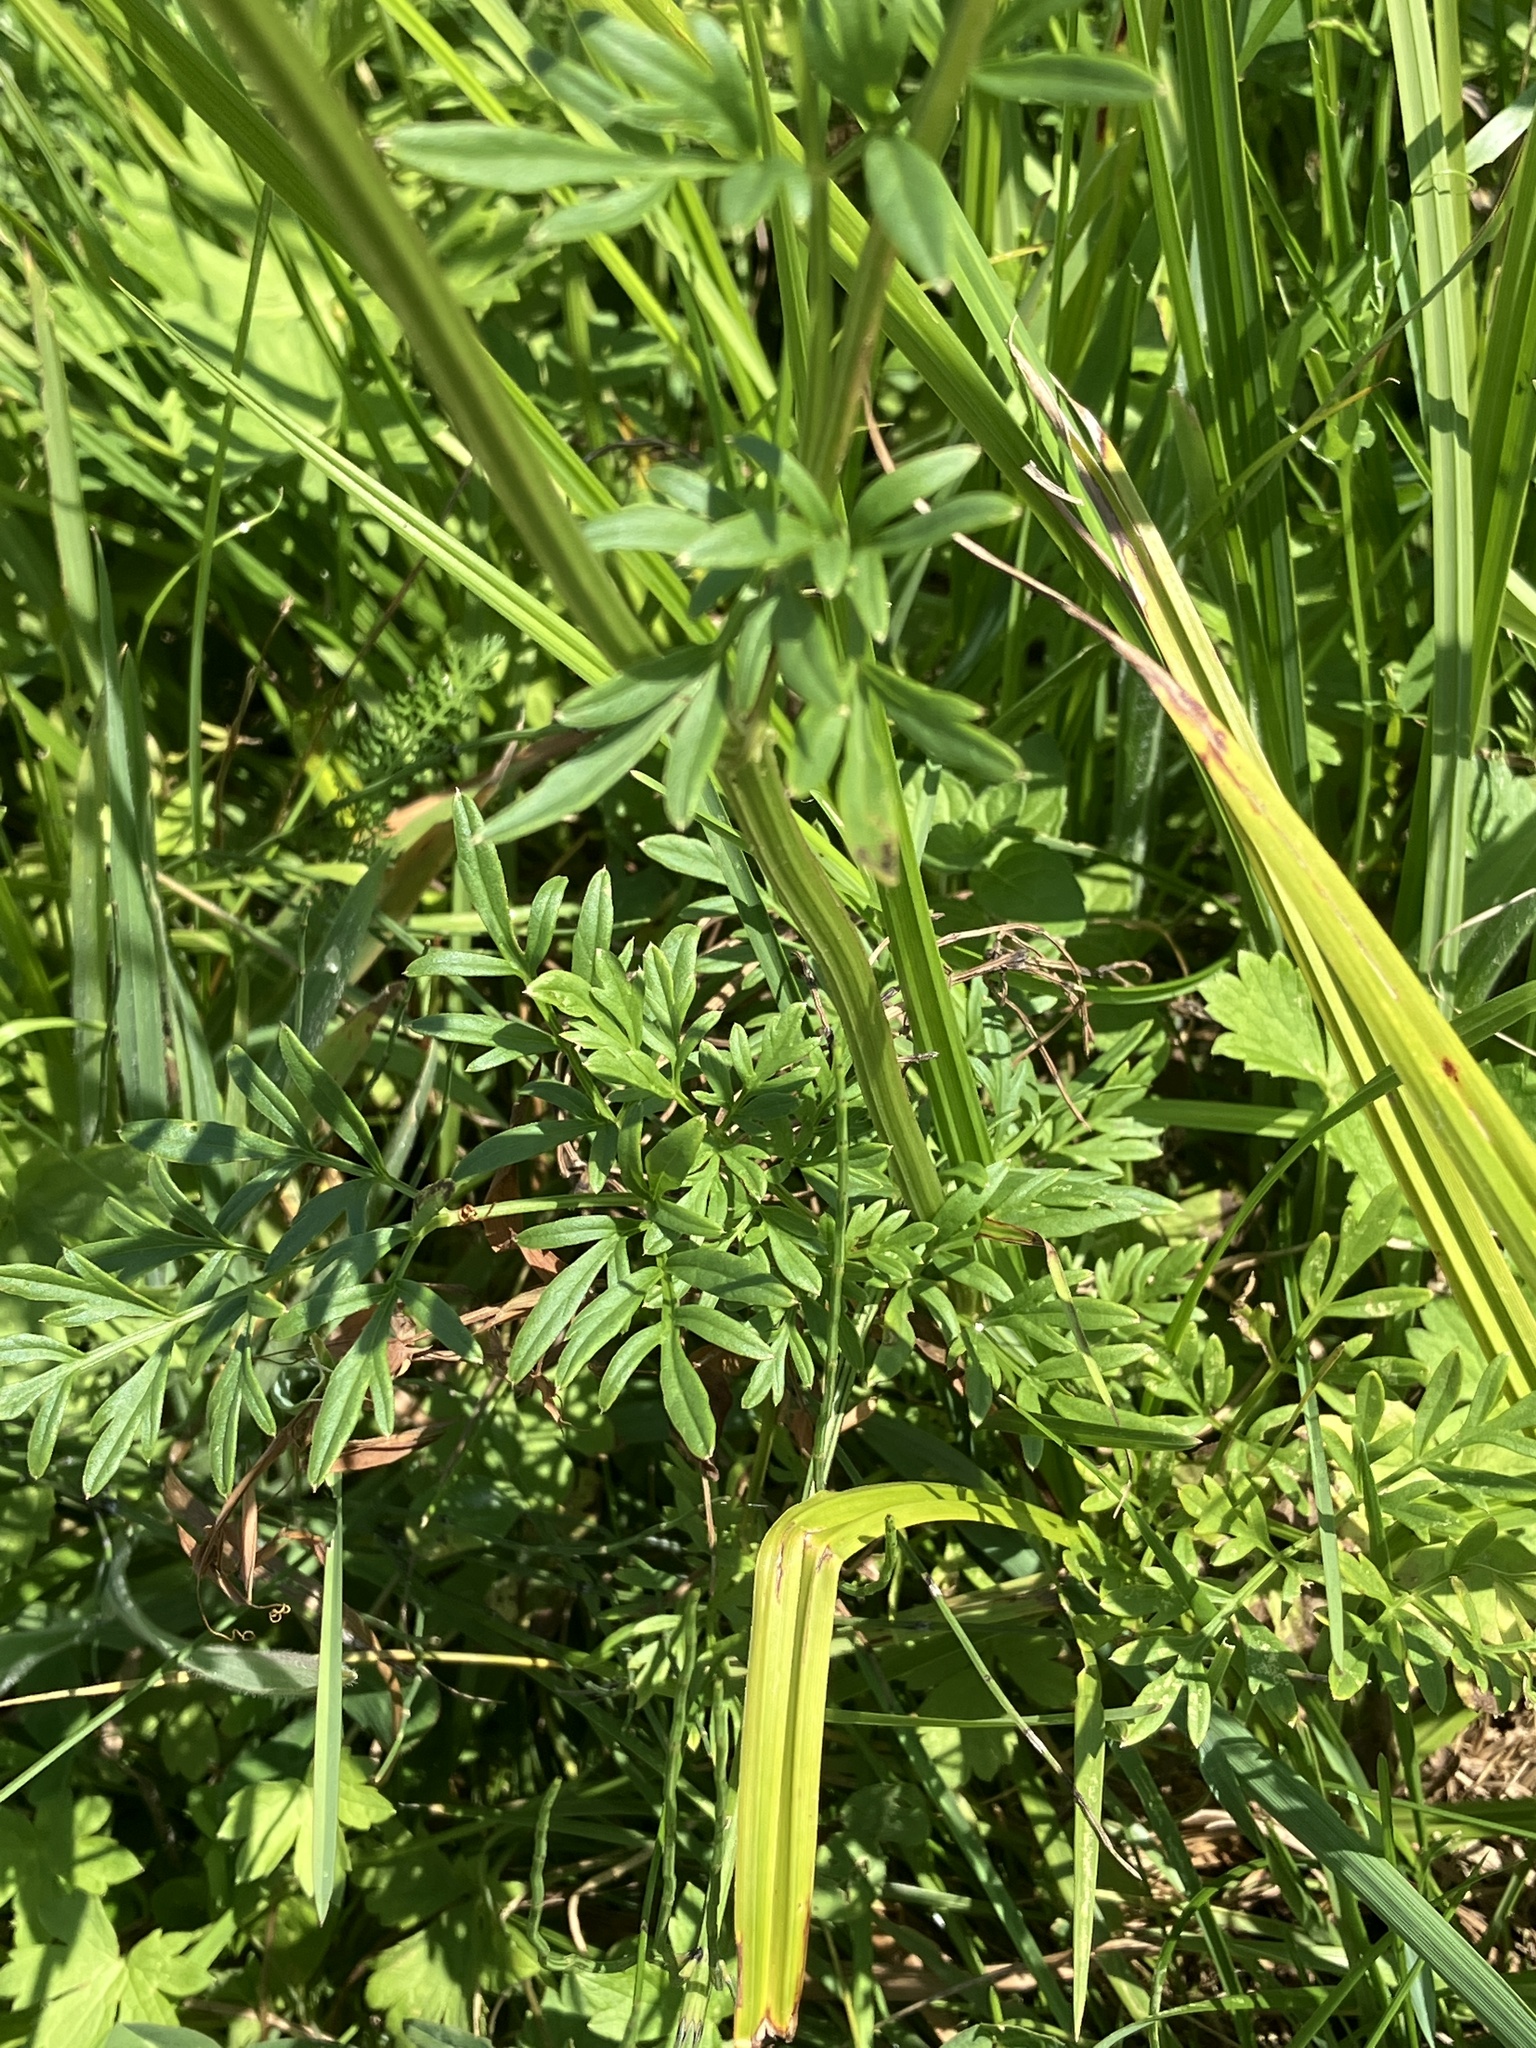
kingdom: Plantae
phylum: Tracheophyta
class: Magnoliopsida
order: Apiales
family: Apiaceae
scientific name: Apiaceae
